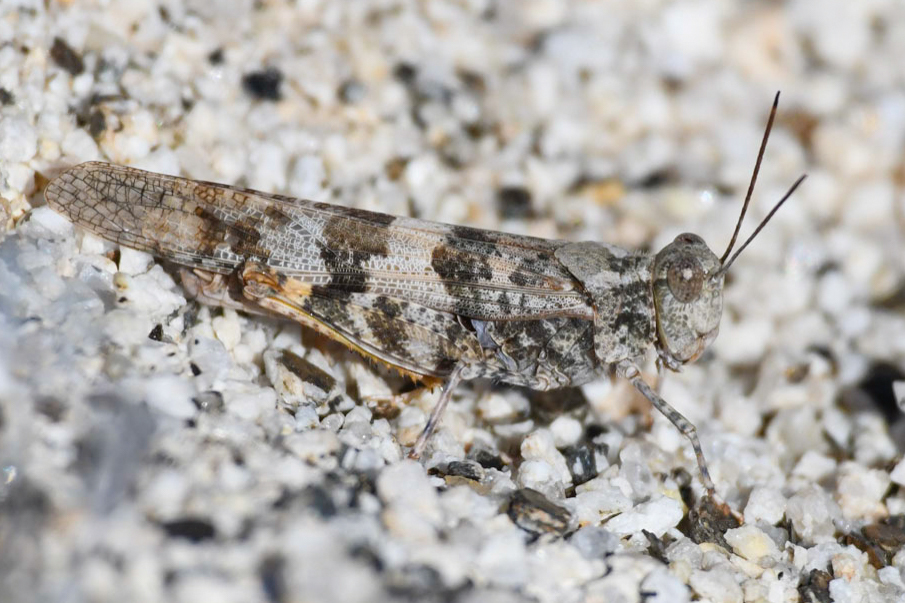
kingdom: Animalia
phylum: Arthropoda
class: Insecta
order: Orthoptera
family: Acrididae
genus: Trimerotropis
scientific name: Trimerotropis pallidipennis
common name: Pallid-winged grasshopper
